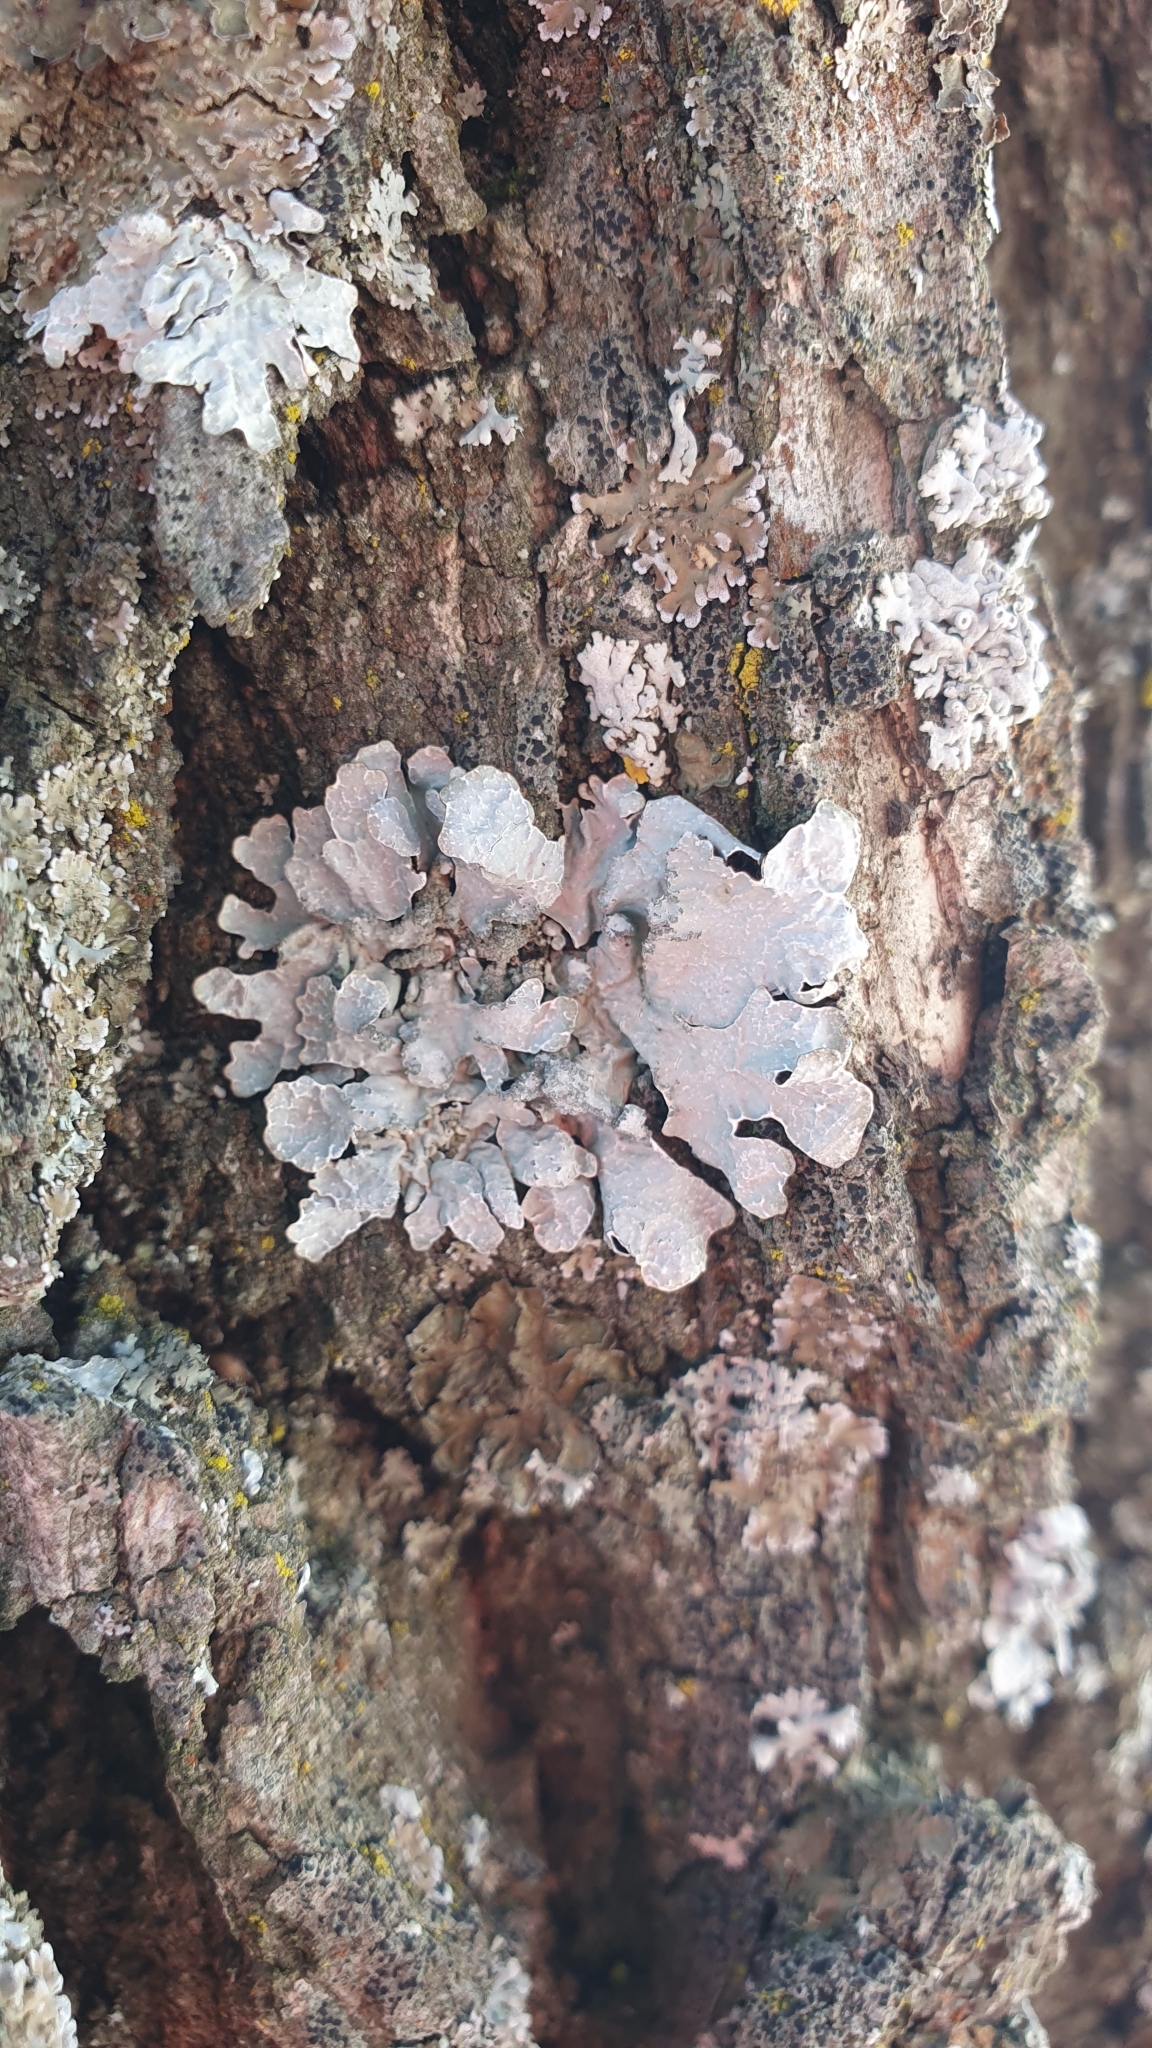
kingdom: Fungi
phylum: Ascomycota
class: Lecanoromycetes
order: Lecanorales
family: Parmeliaceae
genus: Parmelia
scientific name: Parmelia sulcata
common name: Netted shield lichen
